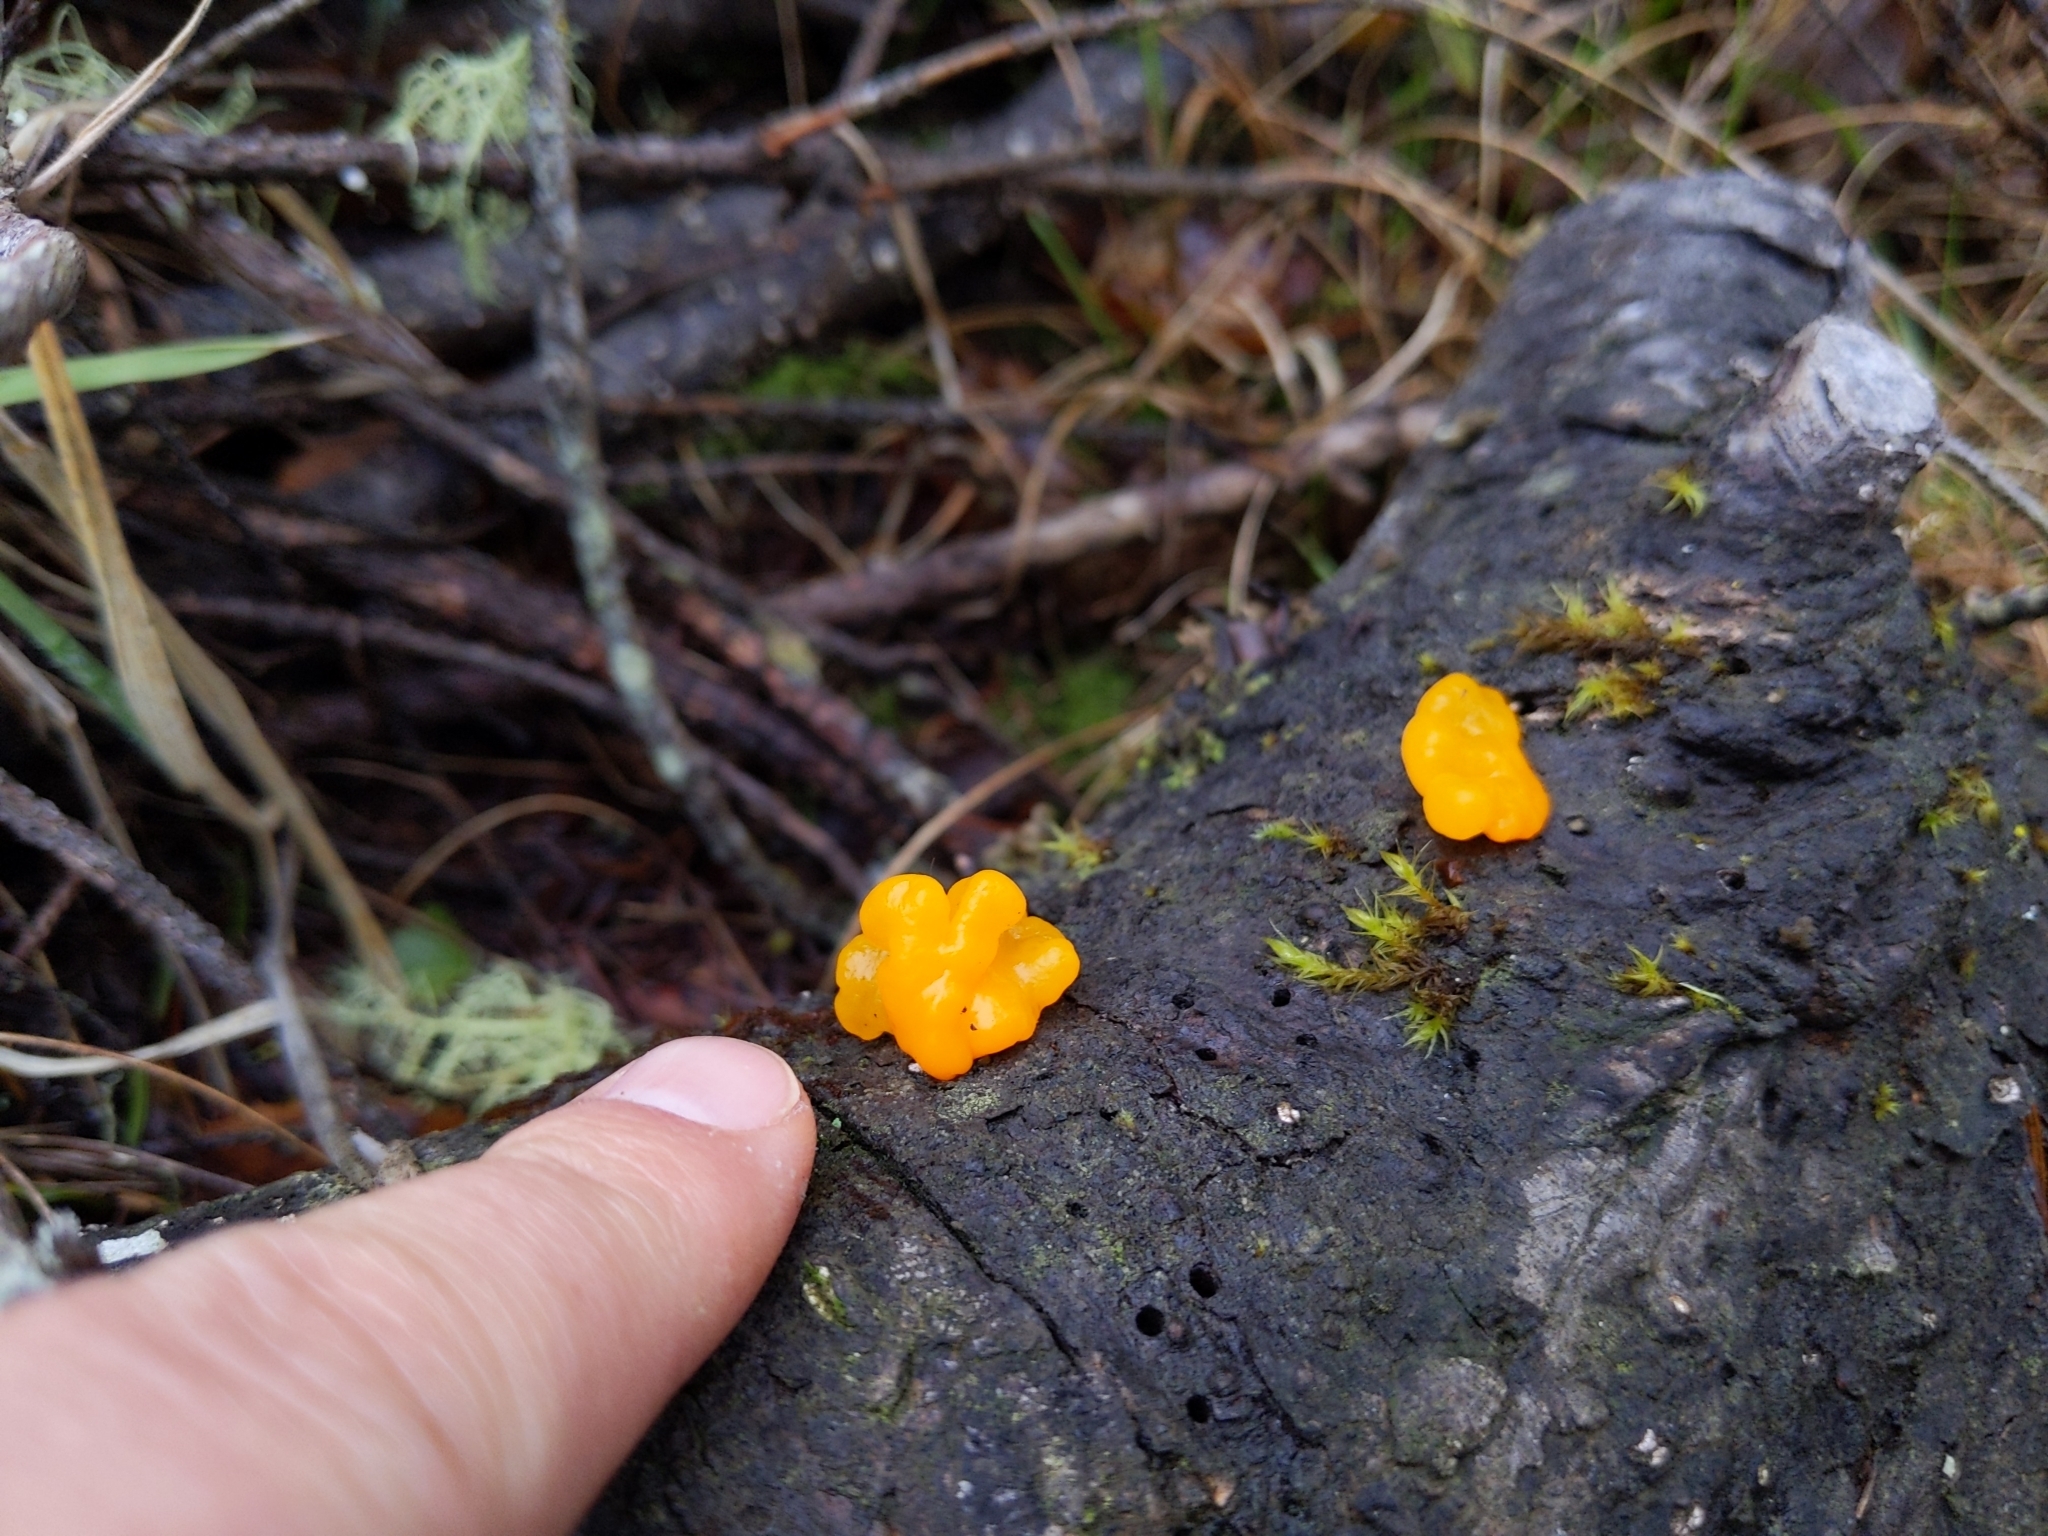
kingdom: Fungi
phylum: Basidiomycota
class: Dacrymycetes
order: Dacrymycetales
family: Dacrymycetaceae
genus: Dacrymyces
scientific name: Dacrymyces chrysospermus
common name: Orange jelly spot
